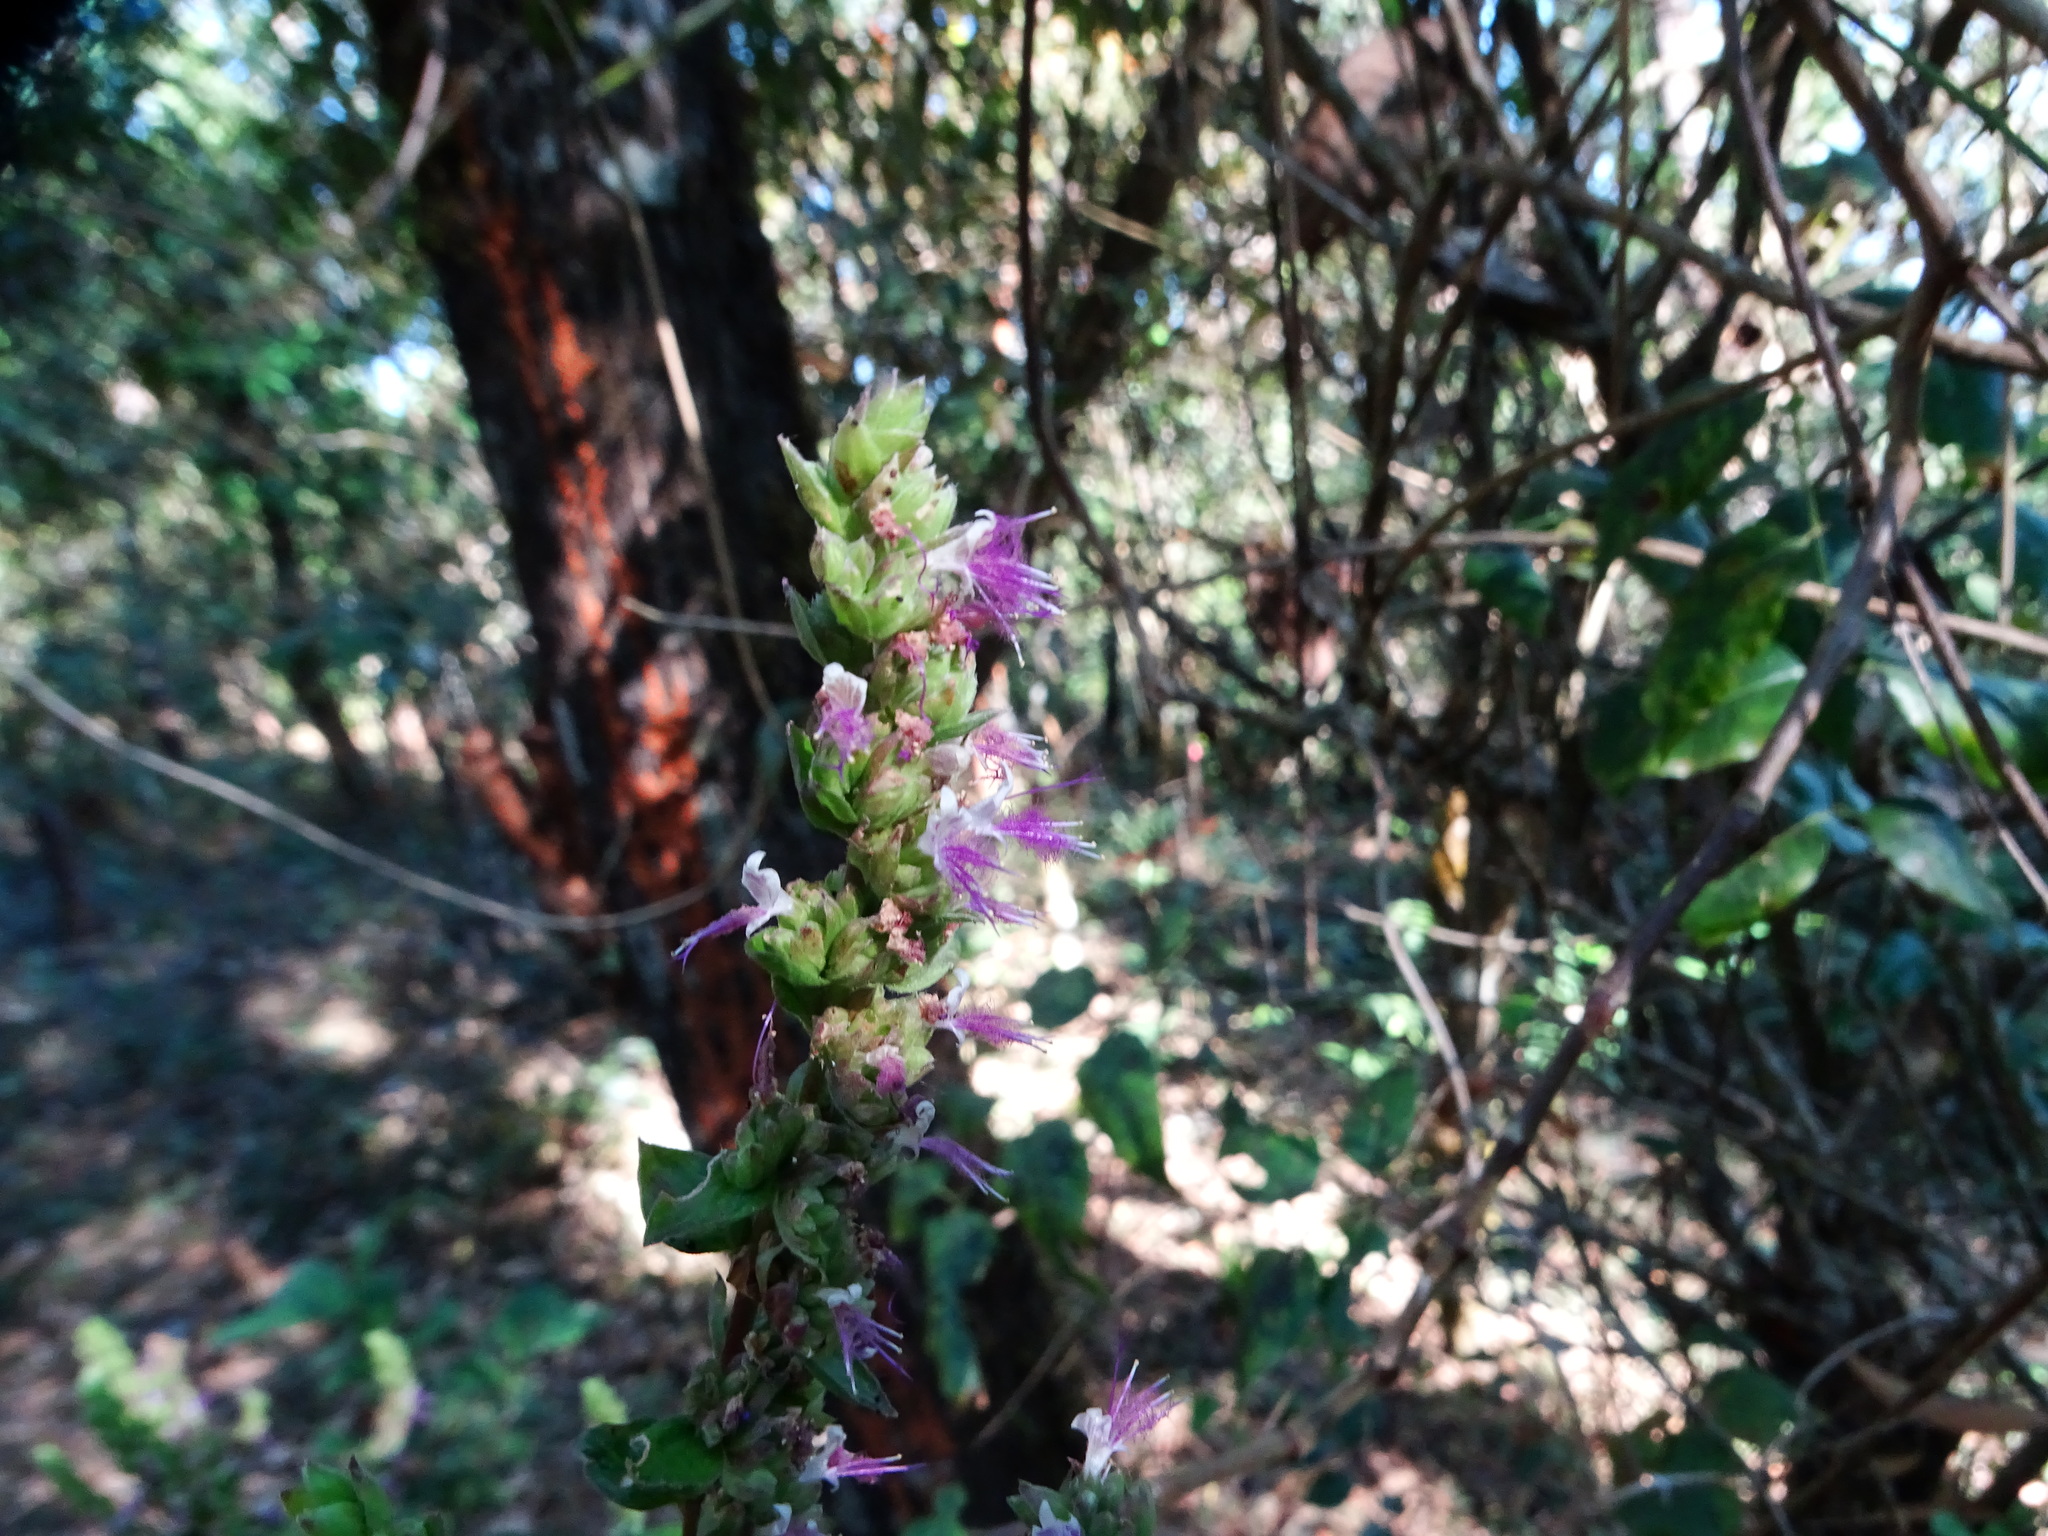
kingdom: Plantae
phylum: Tracheophyta
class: Magnoliopsida
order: Lamiales
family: Lamiaceae
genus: Pogostemon
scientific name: Pogostemon benghalensis
